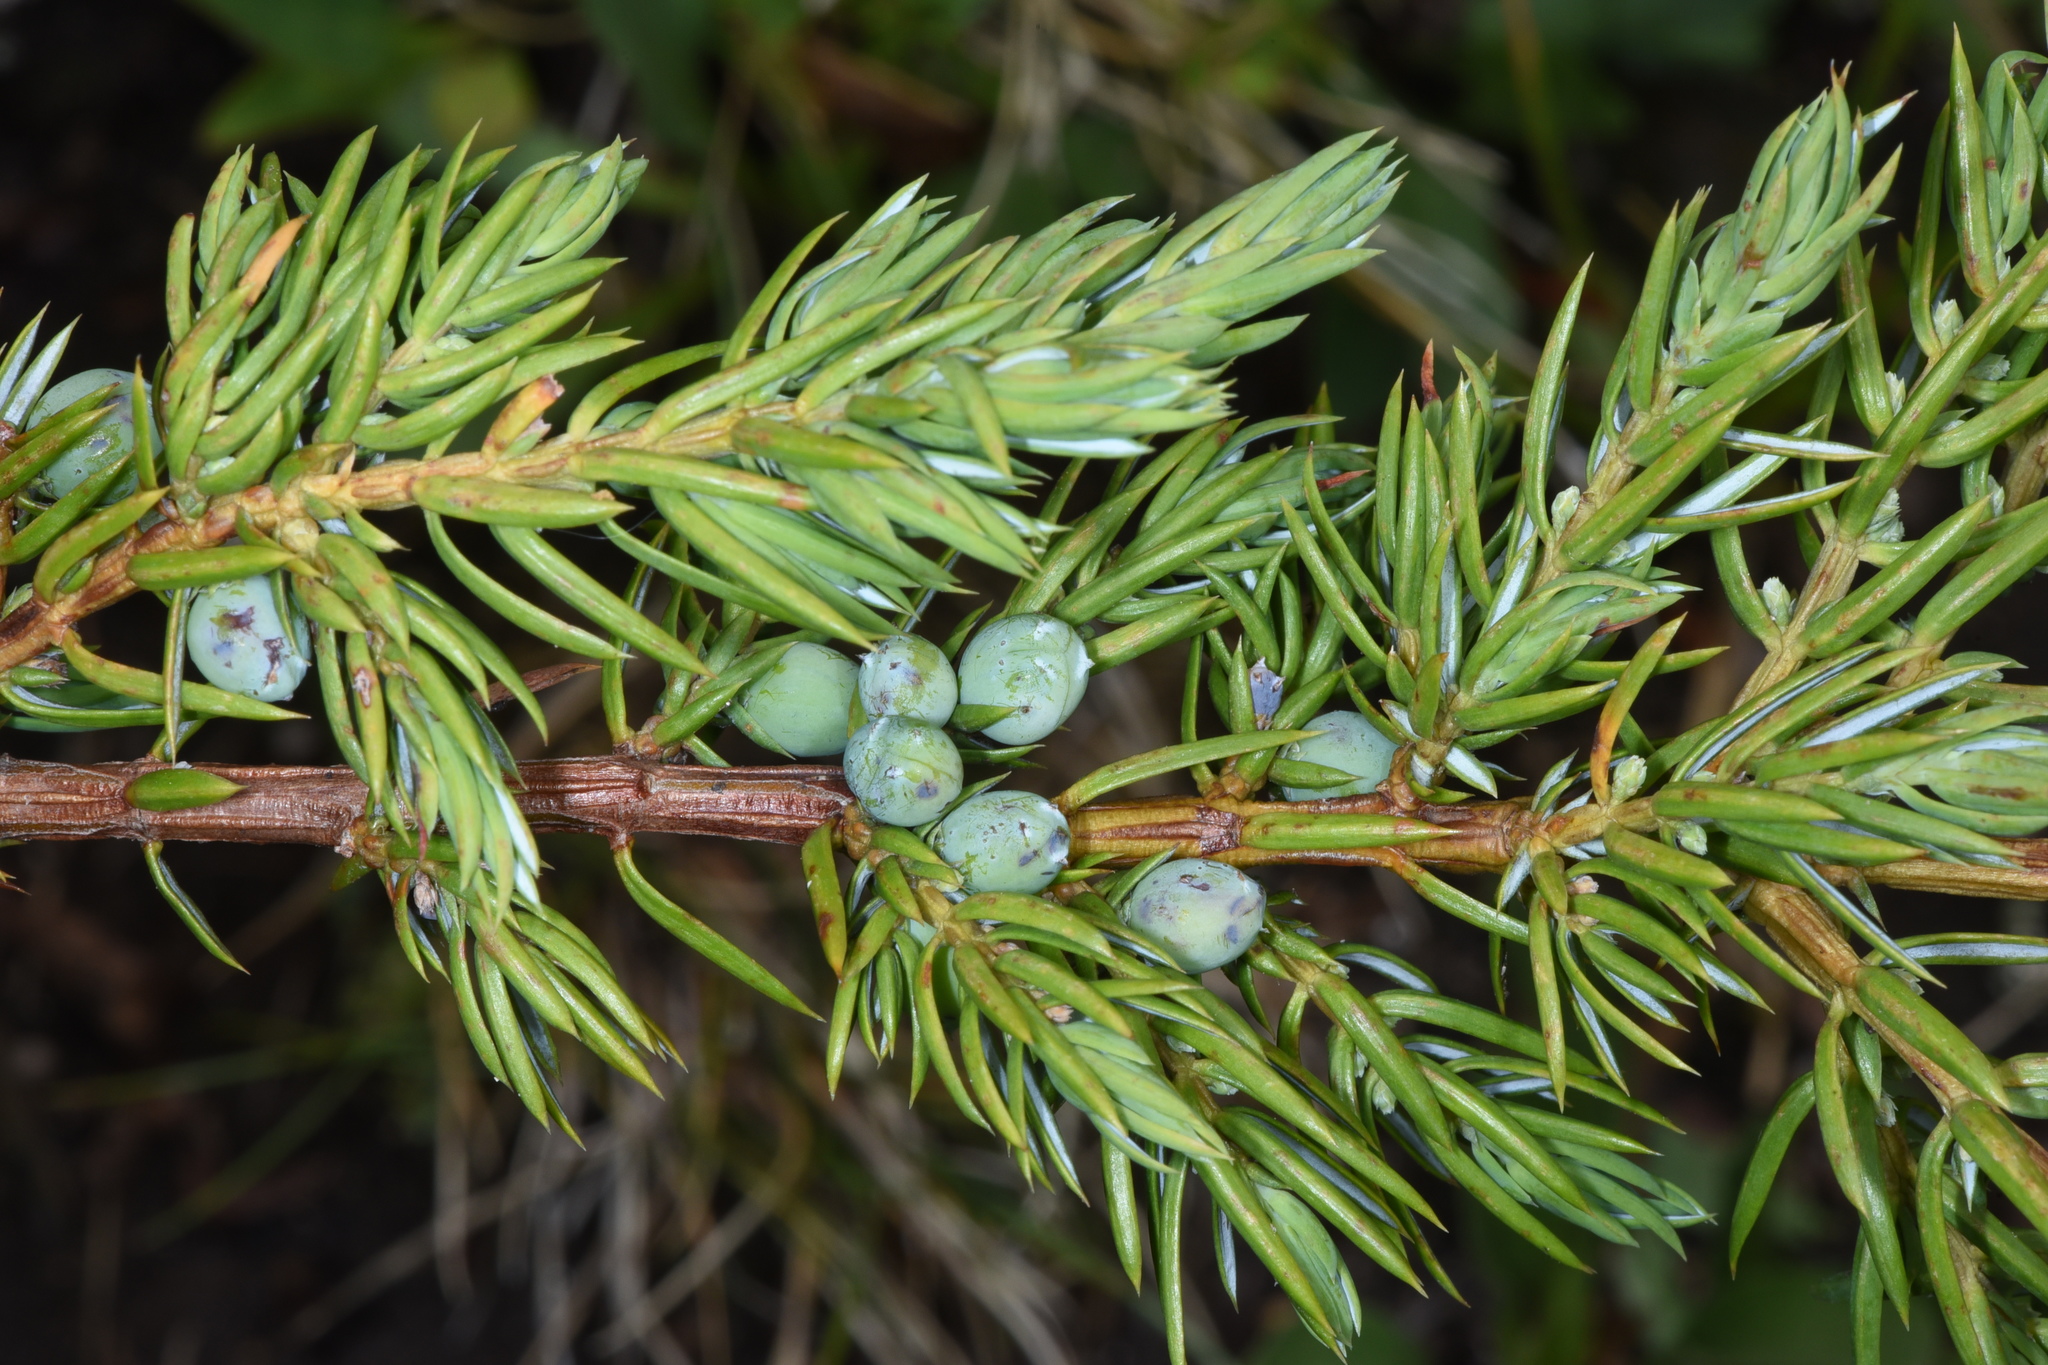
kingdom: Plantae
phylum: Tracheophyta
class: Pinopsida
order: Pinales
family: Cupressaceae
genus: Juniperus
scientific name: Juniperus communis
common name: Common juniper
